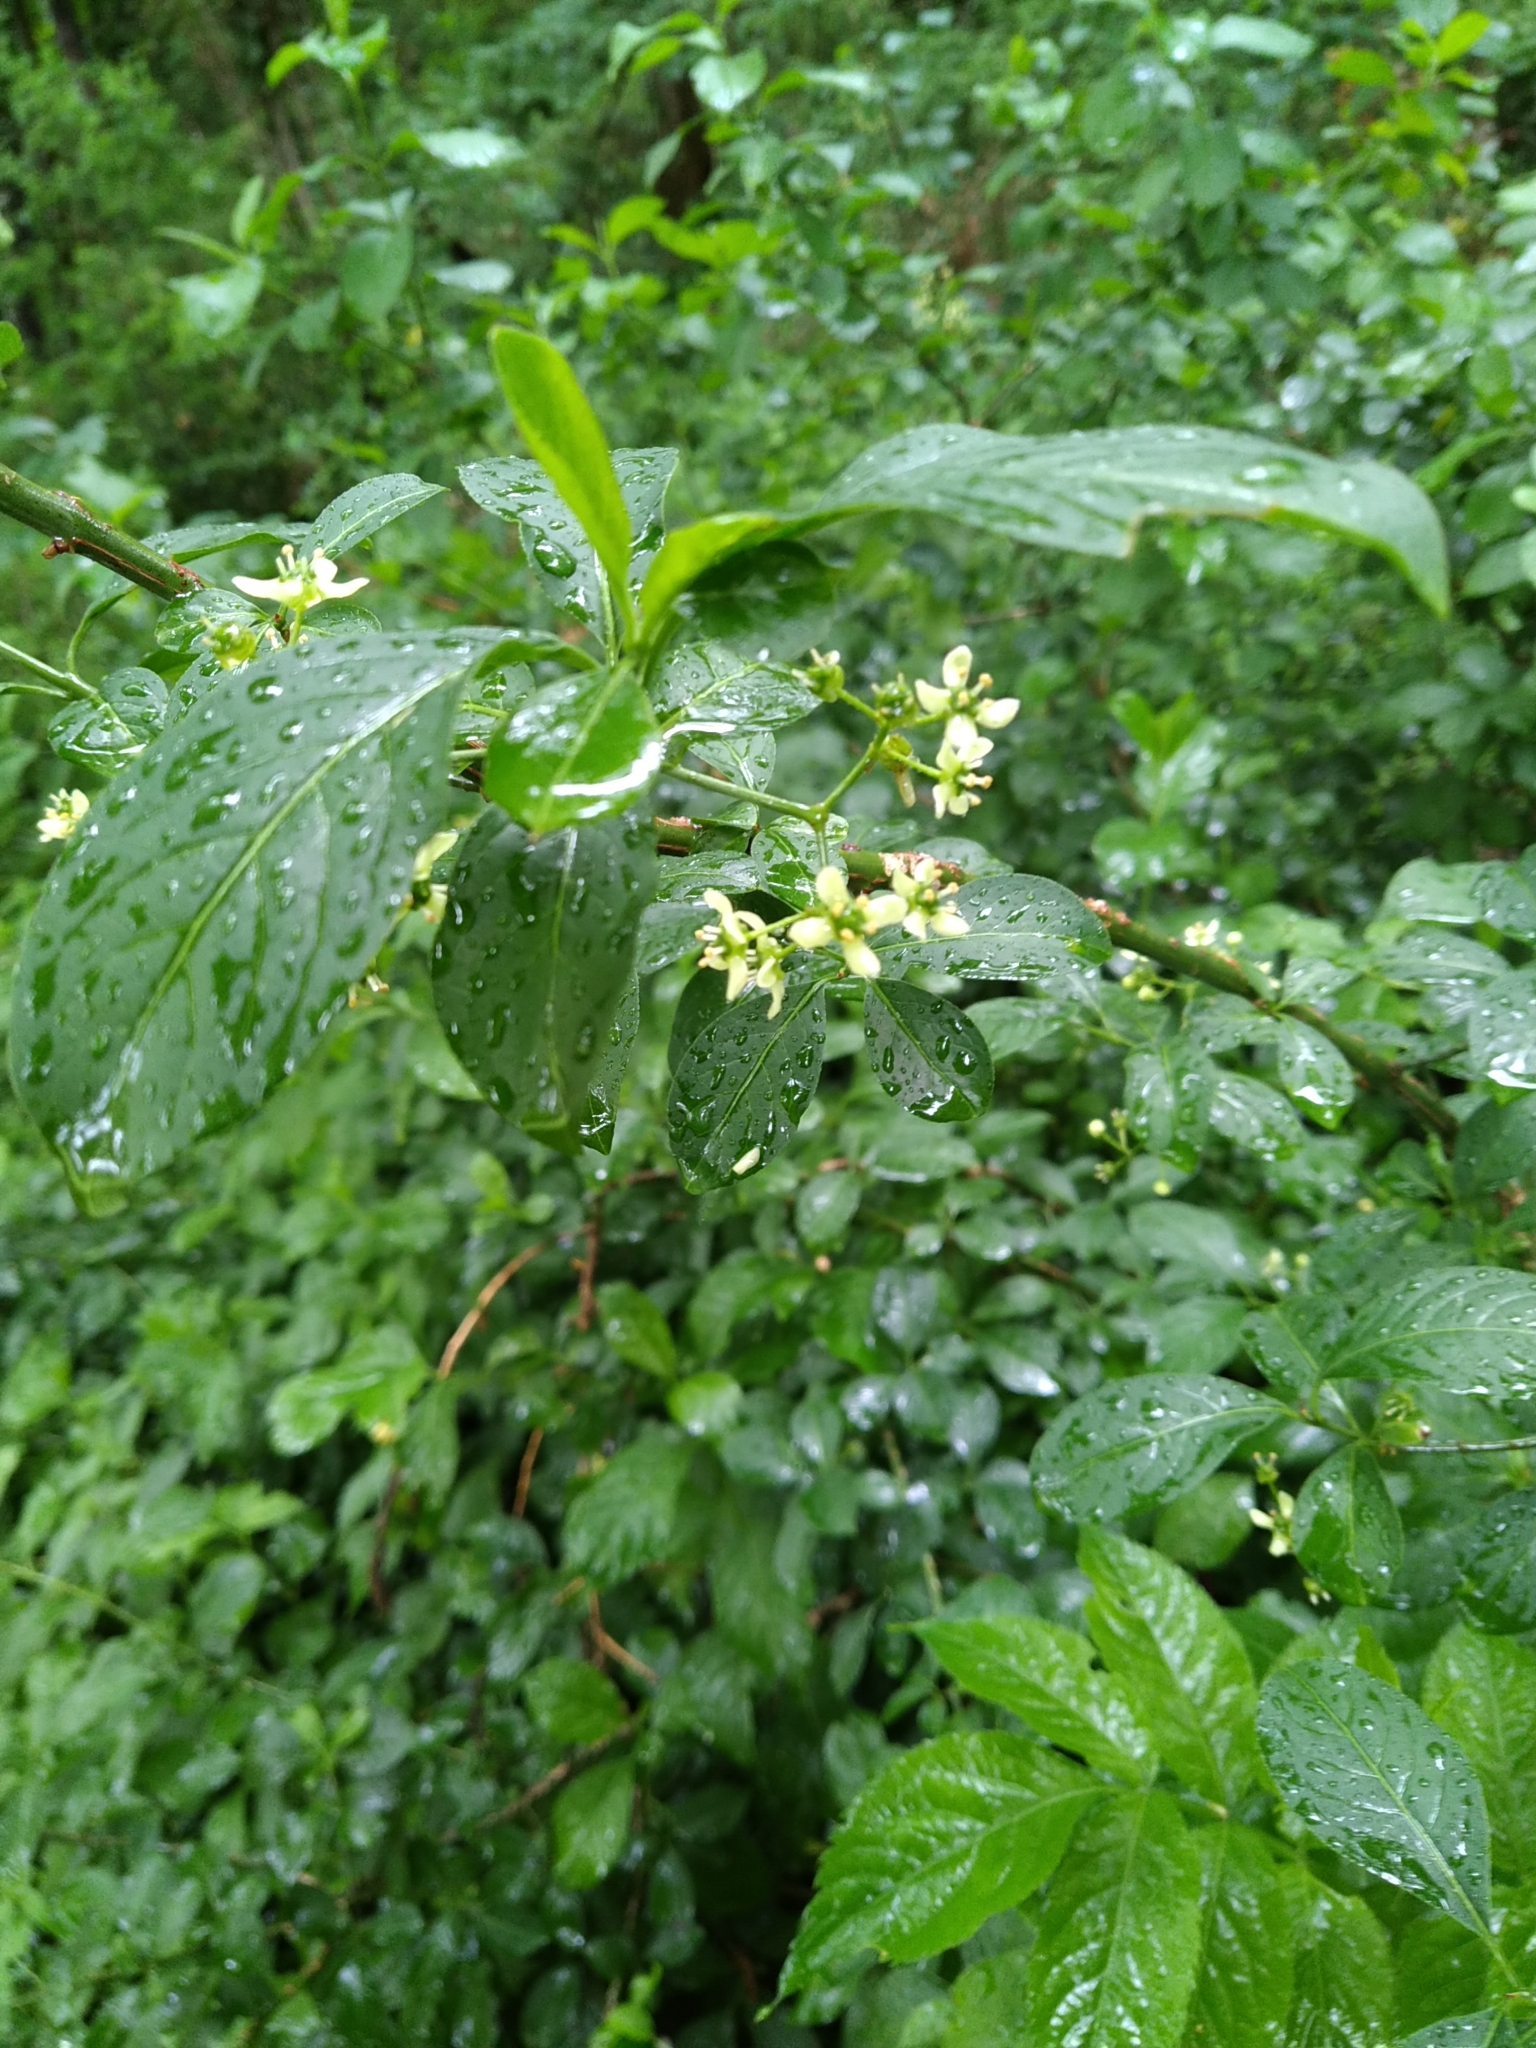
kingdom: Plantae
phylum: Tracheophyta
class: Magnoliopsida
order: Celastrales
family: Celastraceae
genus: Euonymus
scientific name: Euonymus europaeus
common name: Spindle
